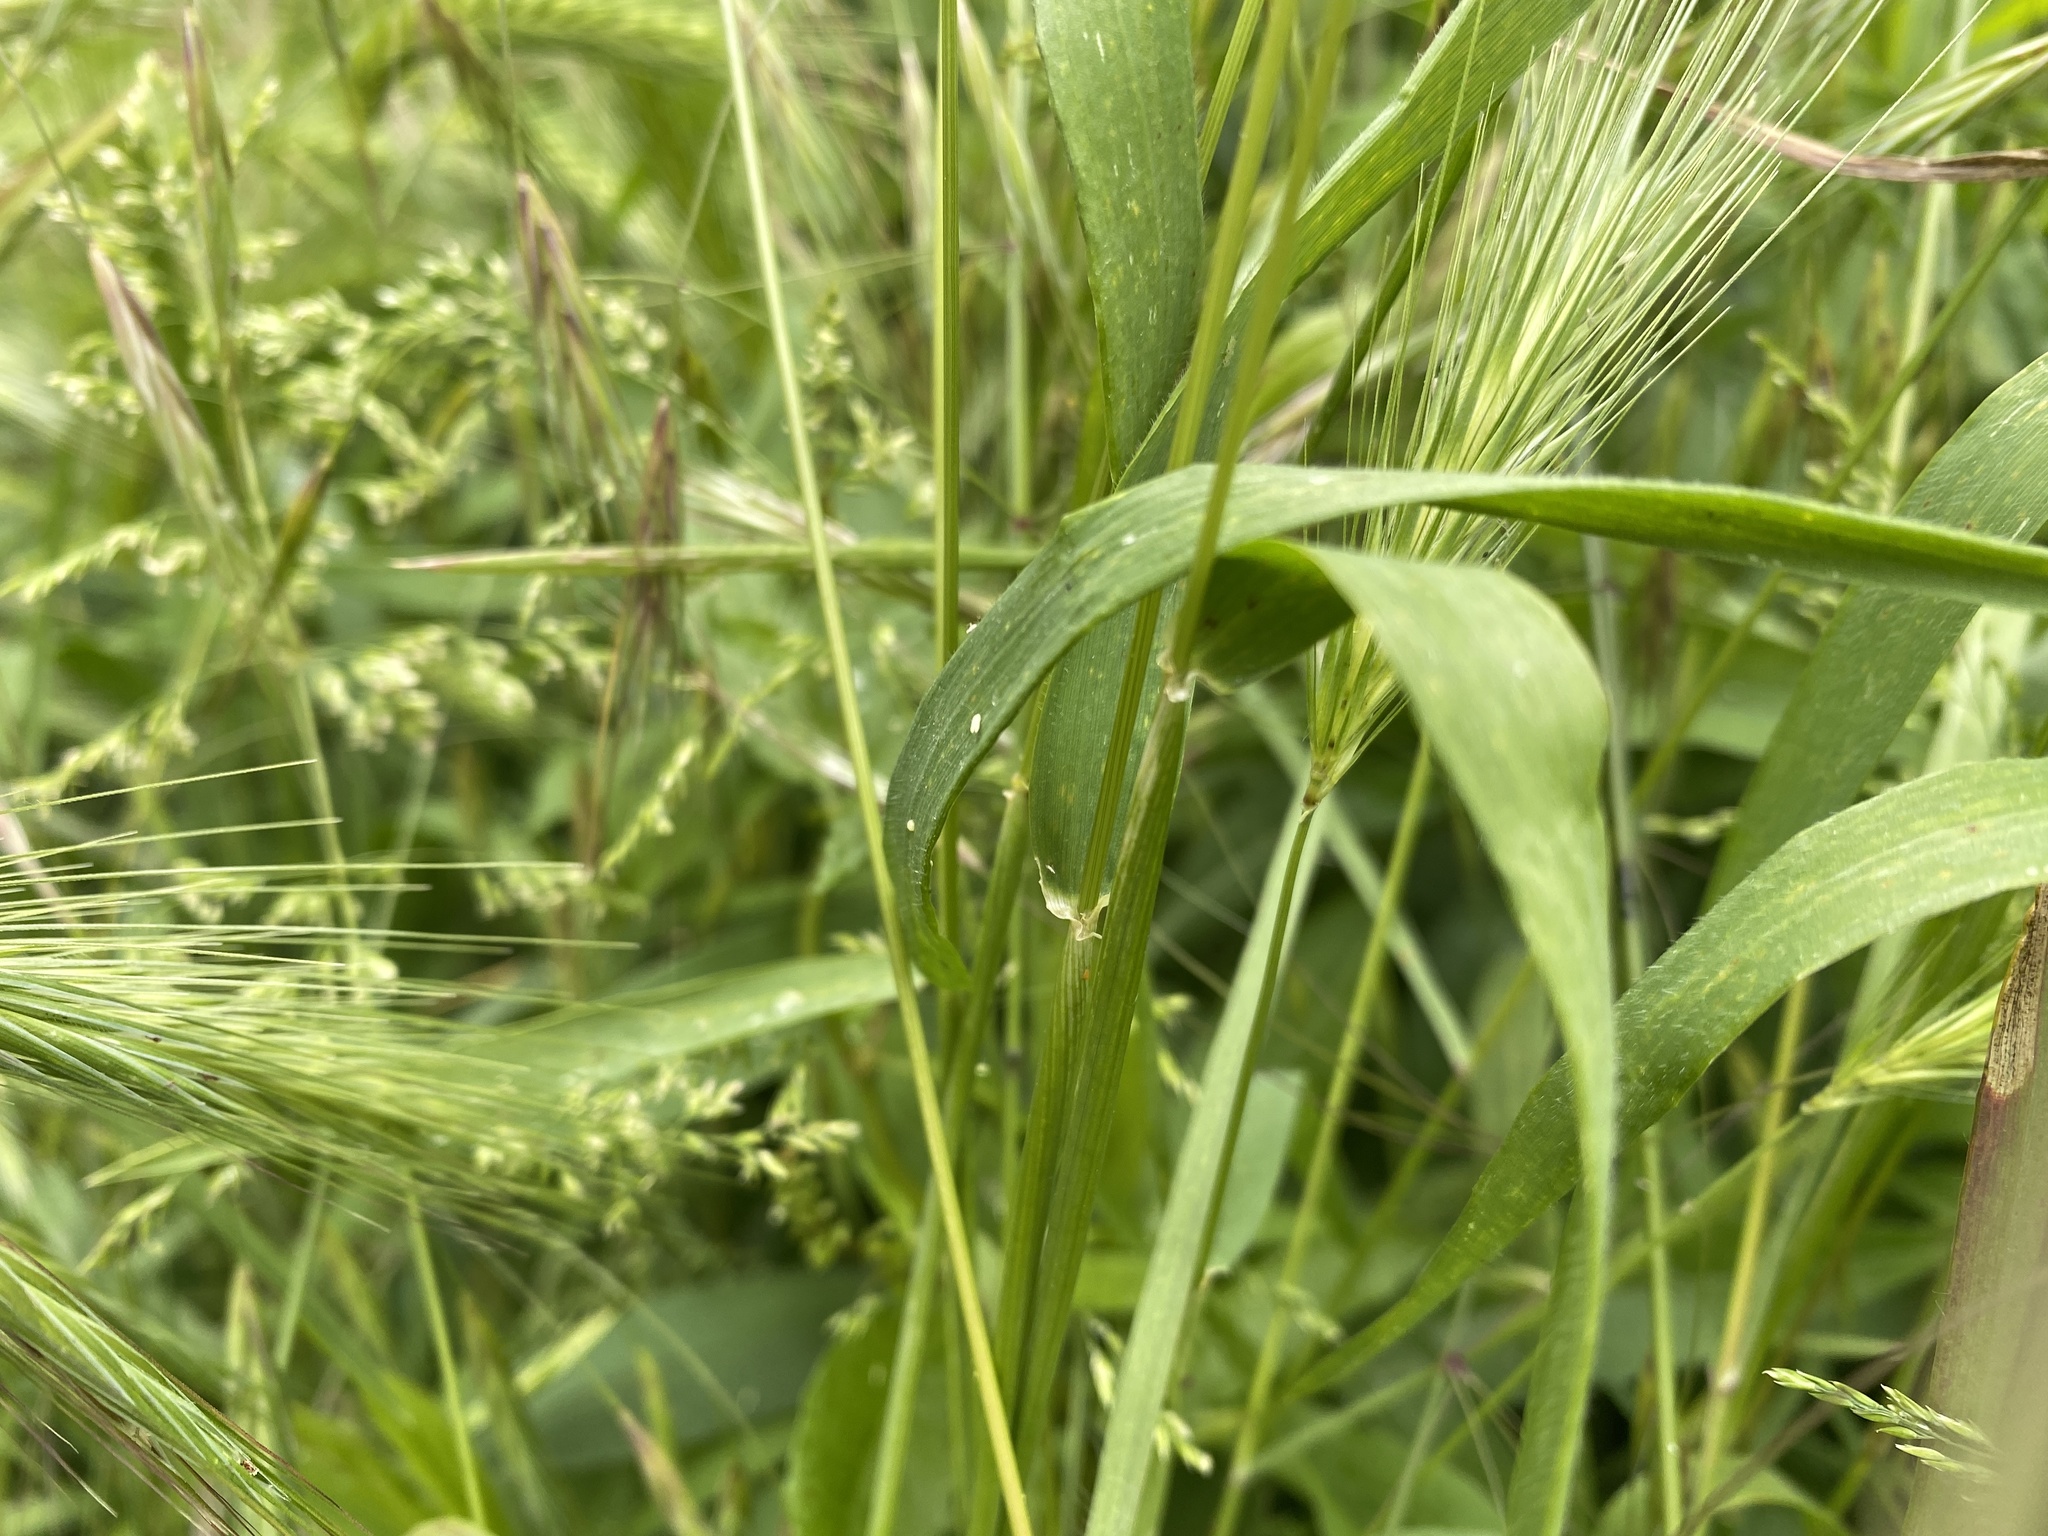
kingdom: Plantae
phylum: Tracheophyta
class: Liliopsida
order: Poales
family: Poaceae
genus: Hordeum
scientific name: Hordeum murinum
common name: Wall barley
